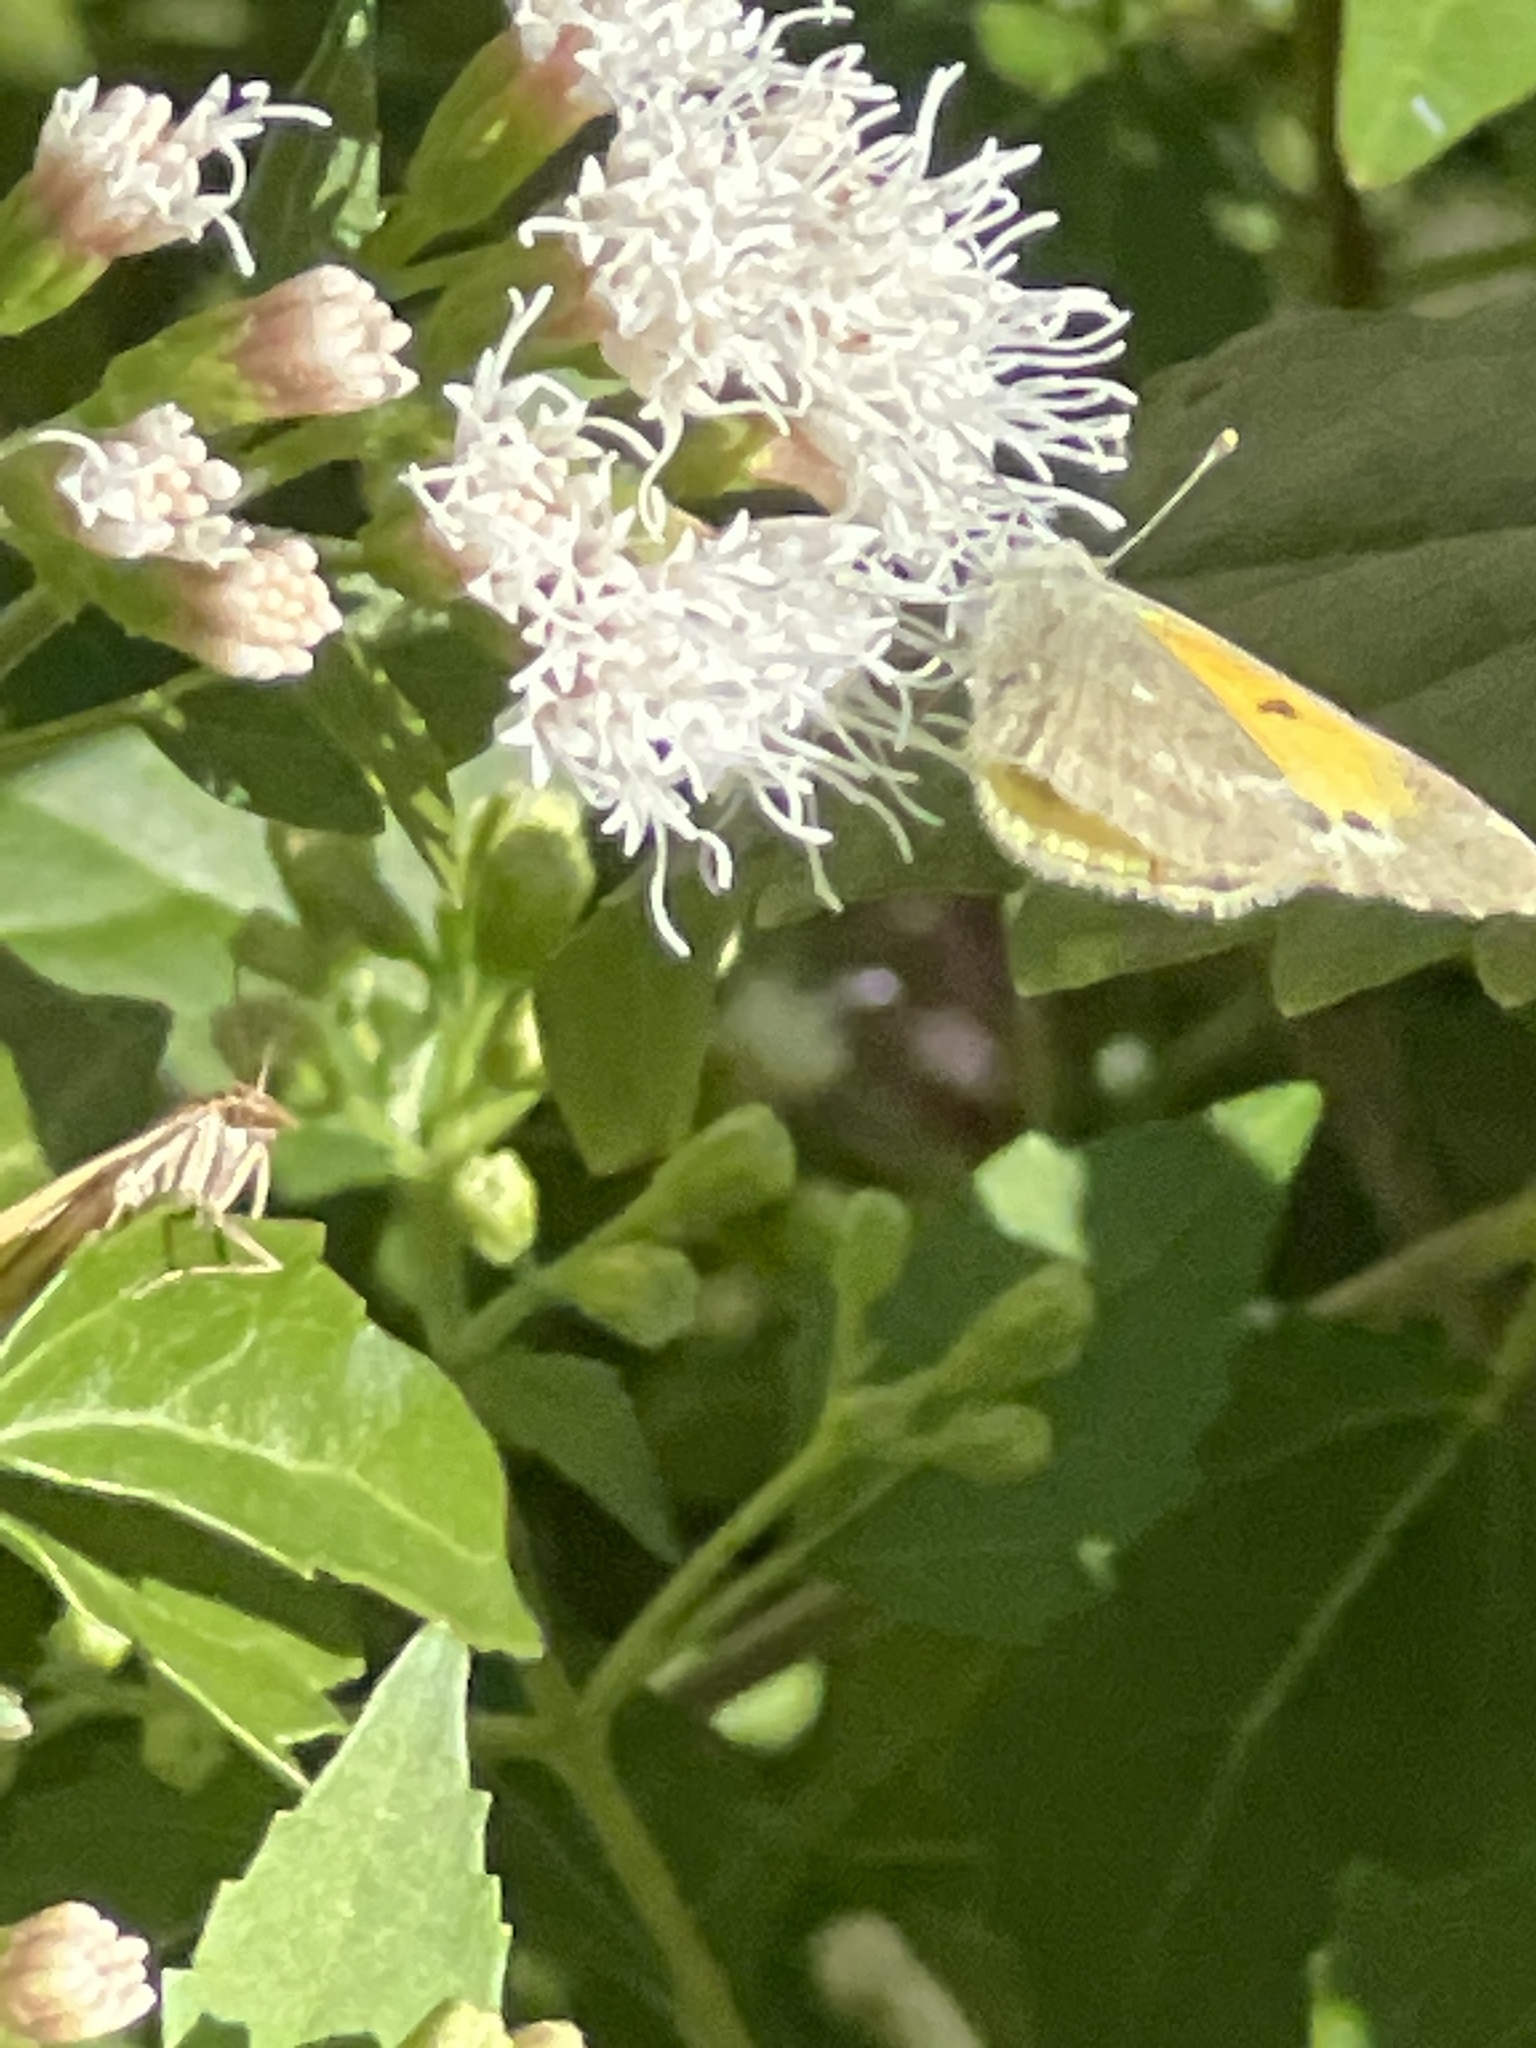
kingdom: Animalia
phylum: Arthropoda
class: Insecta
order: Lepidoptera
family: Pieridae
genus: Nathalis
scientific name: Nathalis iole
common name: Dainty sulphur
